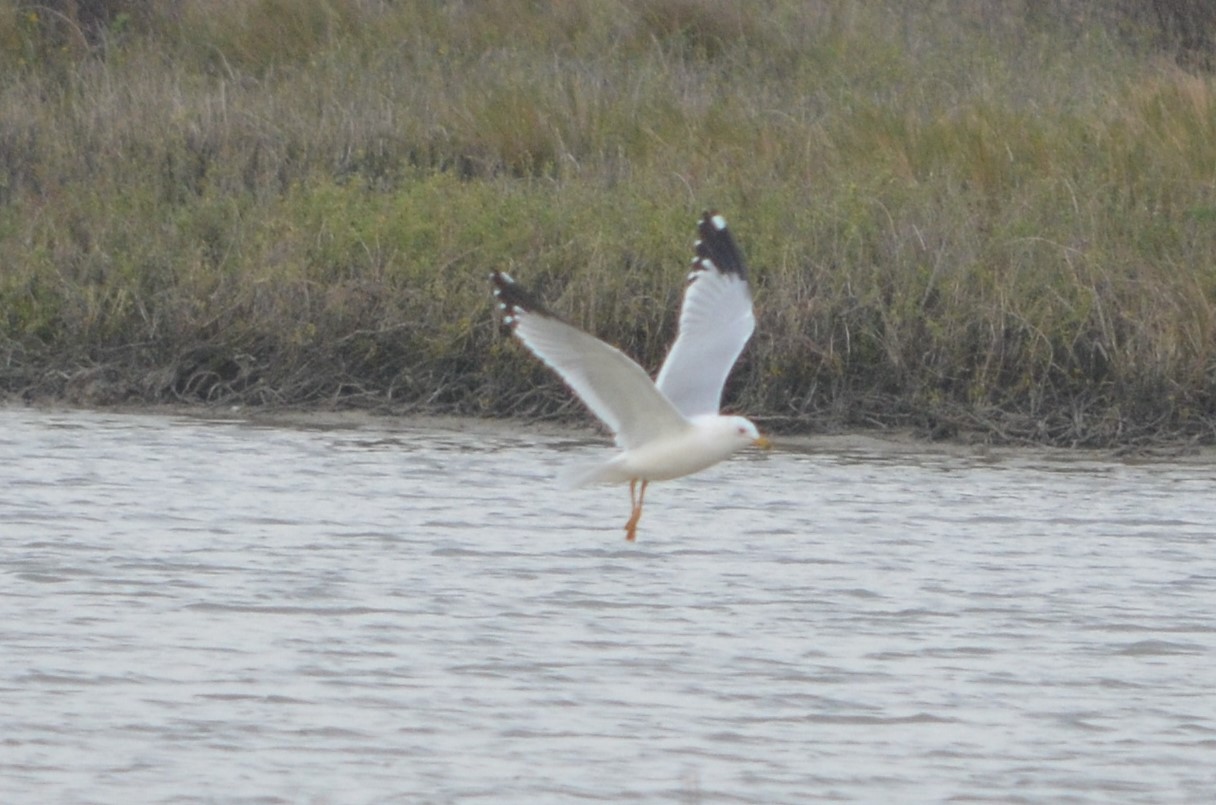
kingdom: Animalia
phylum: Chordata
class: Aves
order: Charadriiformes
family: Laridae
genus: Larus
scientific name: Larus delawarensis
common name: Ring-billed gull
